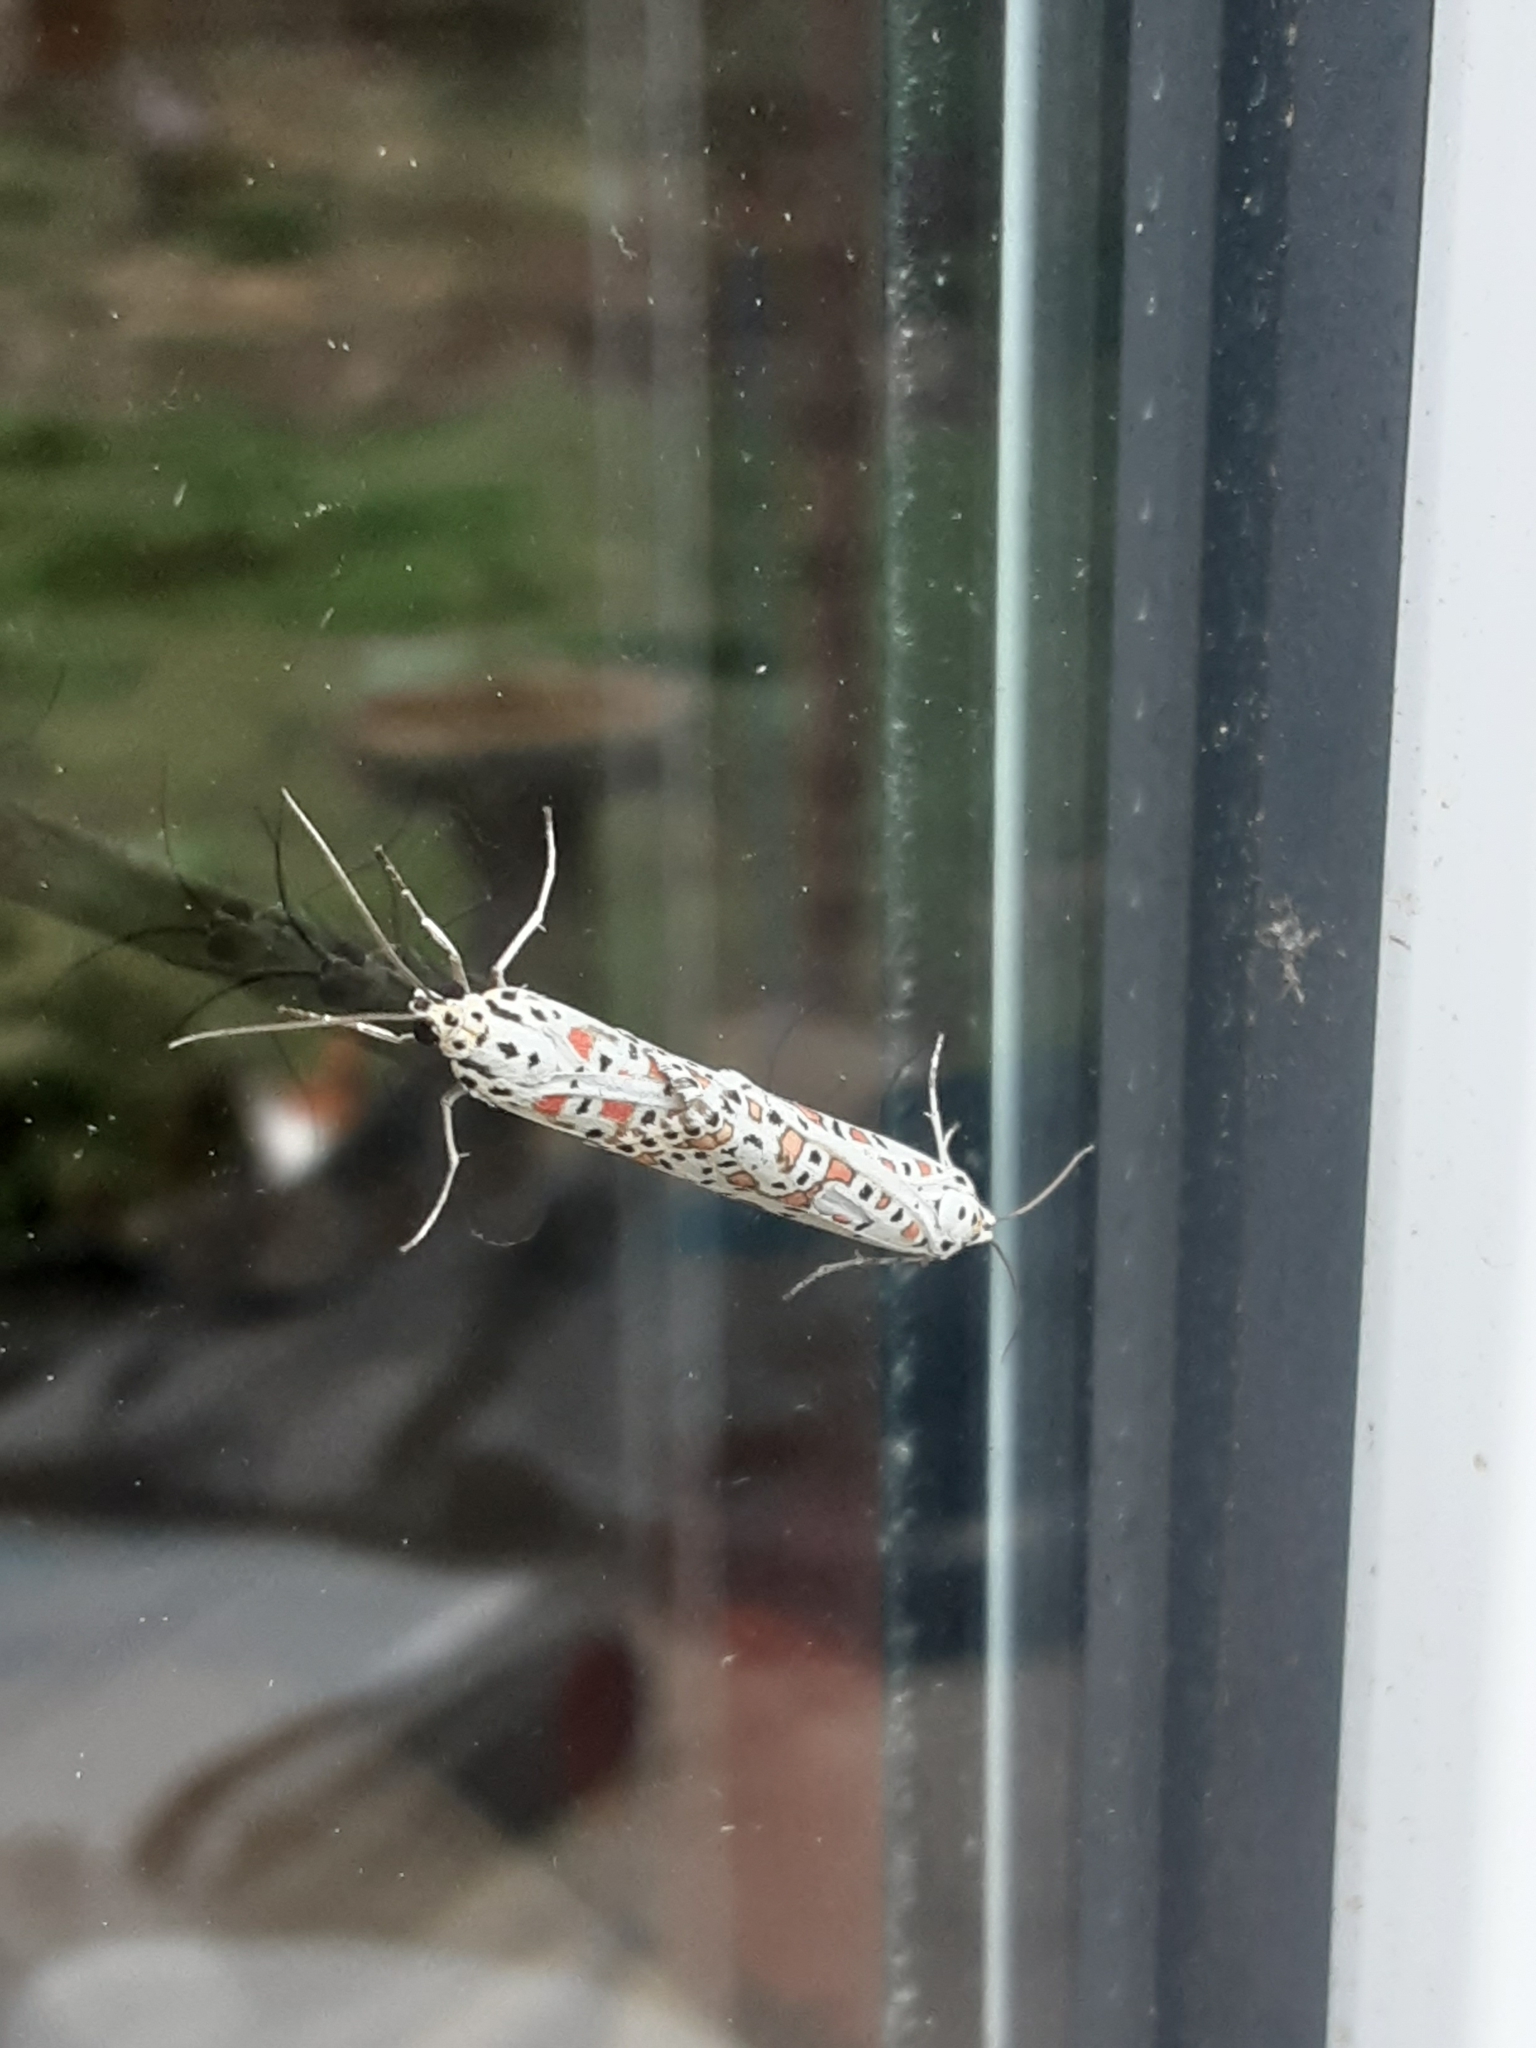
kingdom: Animalia
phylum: Arthropoda
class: Insecta
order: Lepidoptera
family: Erebidae
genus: Utetheisa
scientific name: Utetheisa pulchelloides
